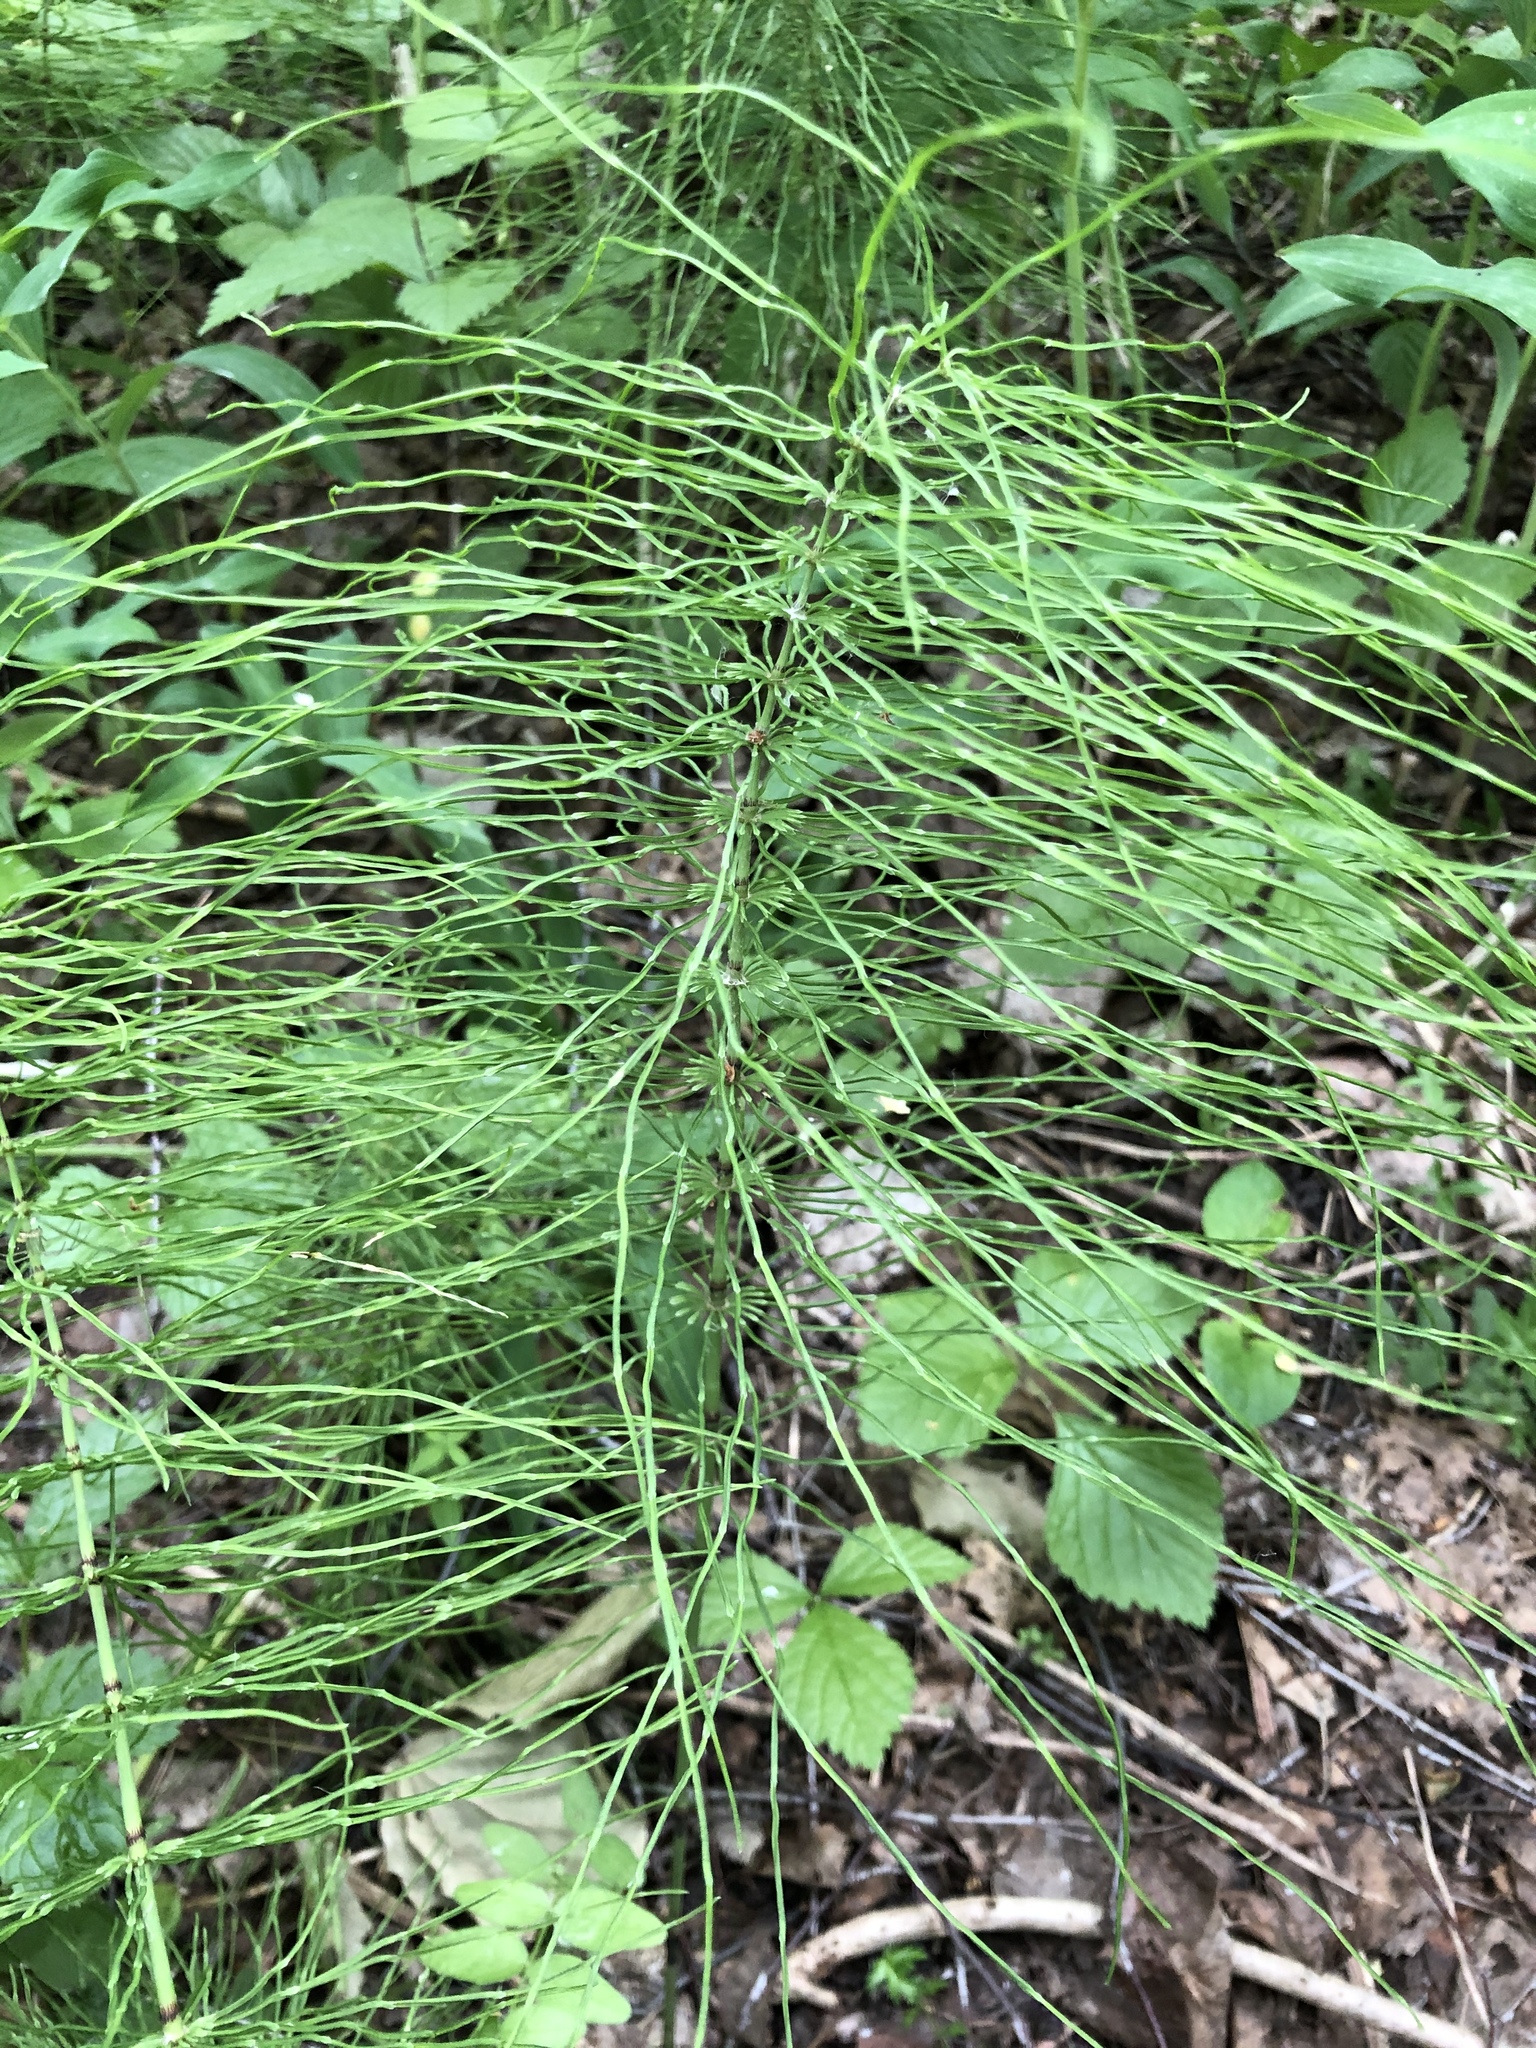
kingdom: Plantae
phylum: Tracheophyta
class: Polypodiopsida
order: Equisetales
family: Equisetaceae
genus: Equisetum
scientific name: Equisetum pratense
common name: Meadow horsetail
